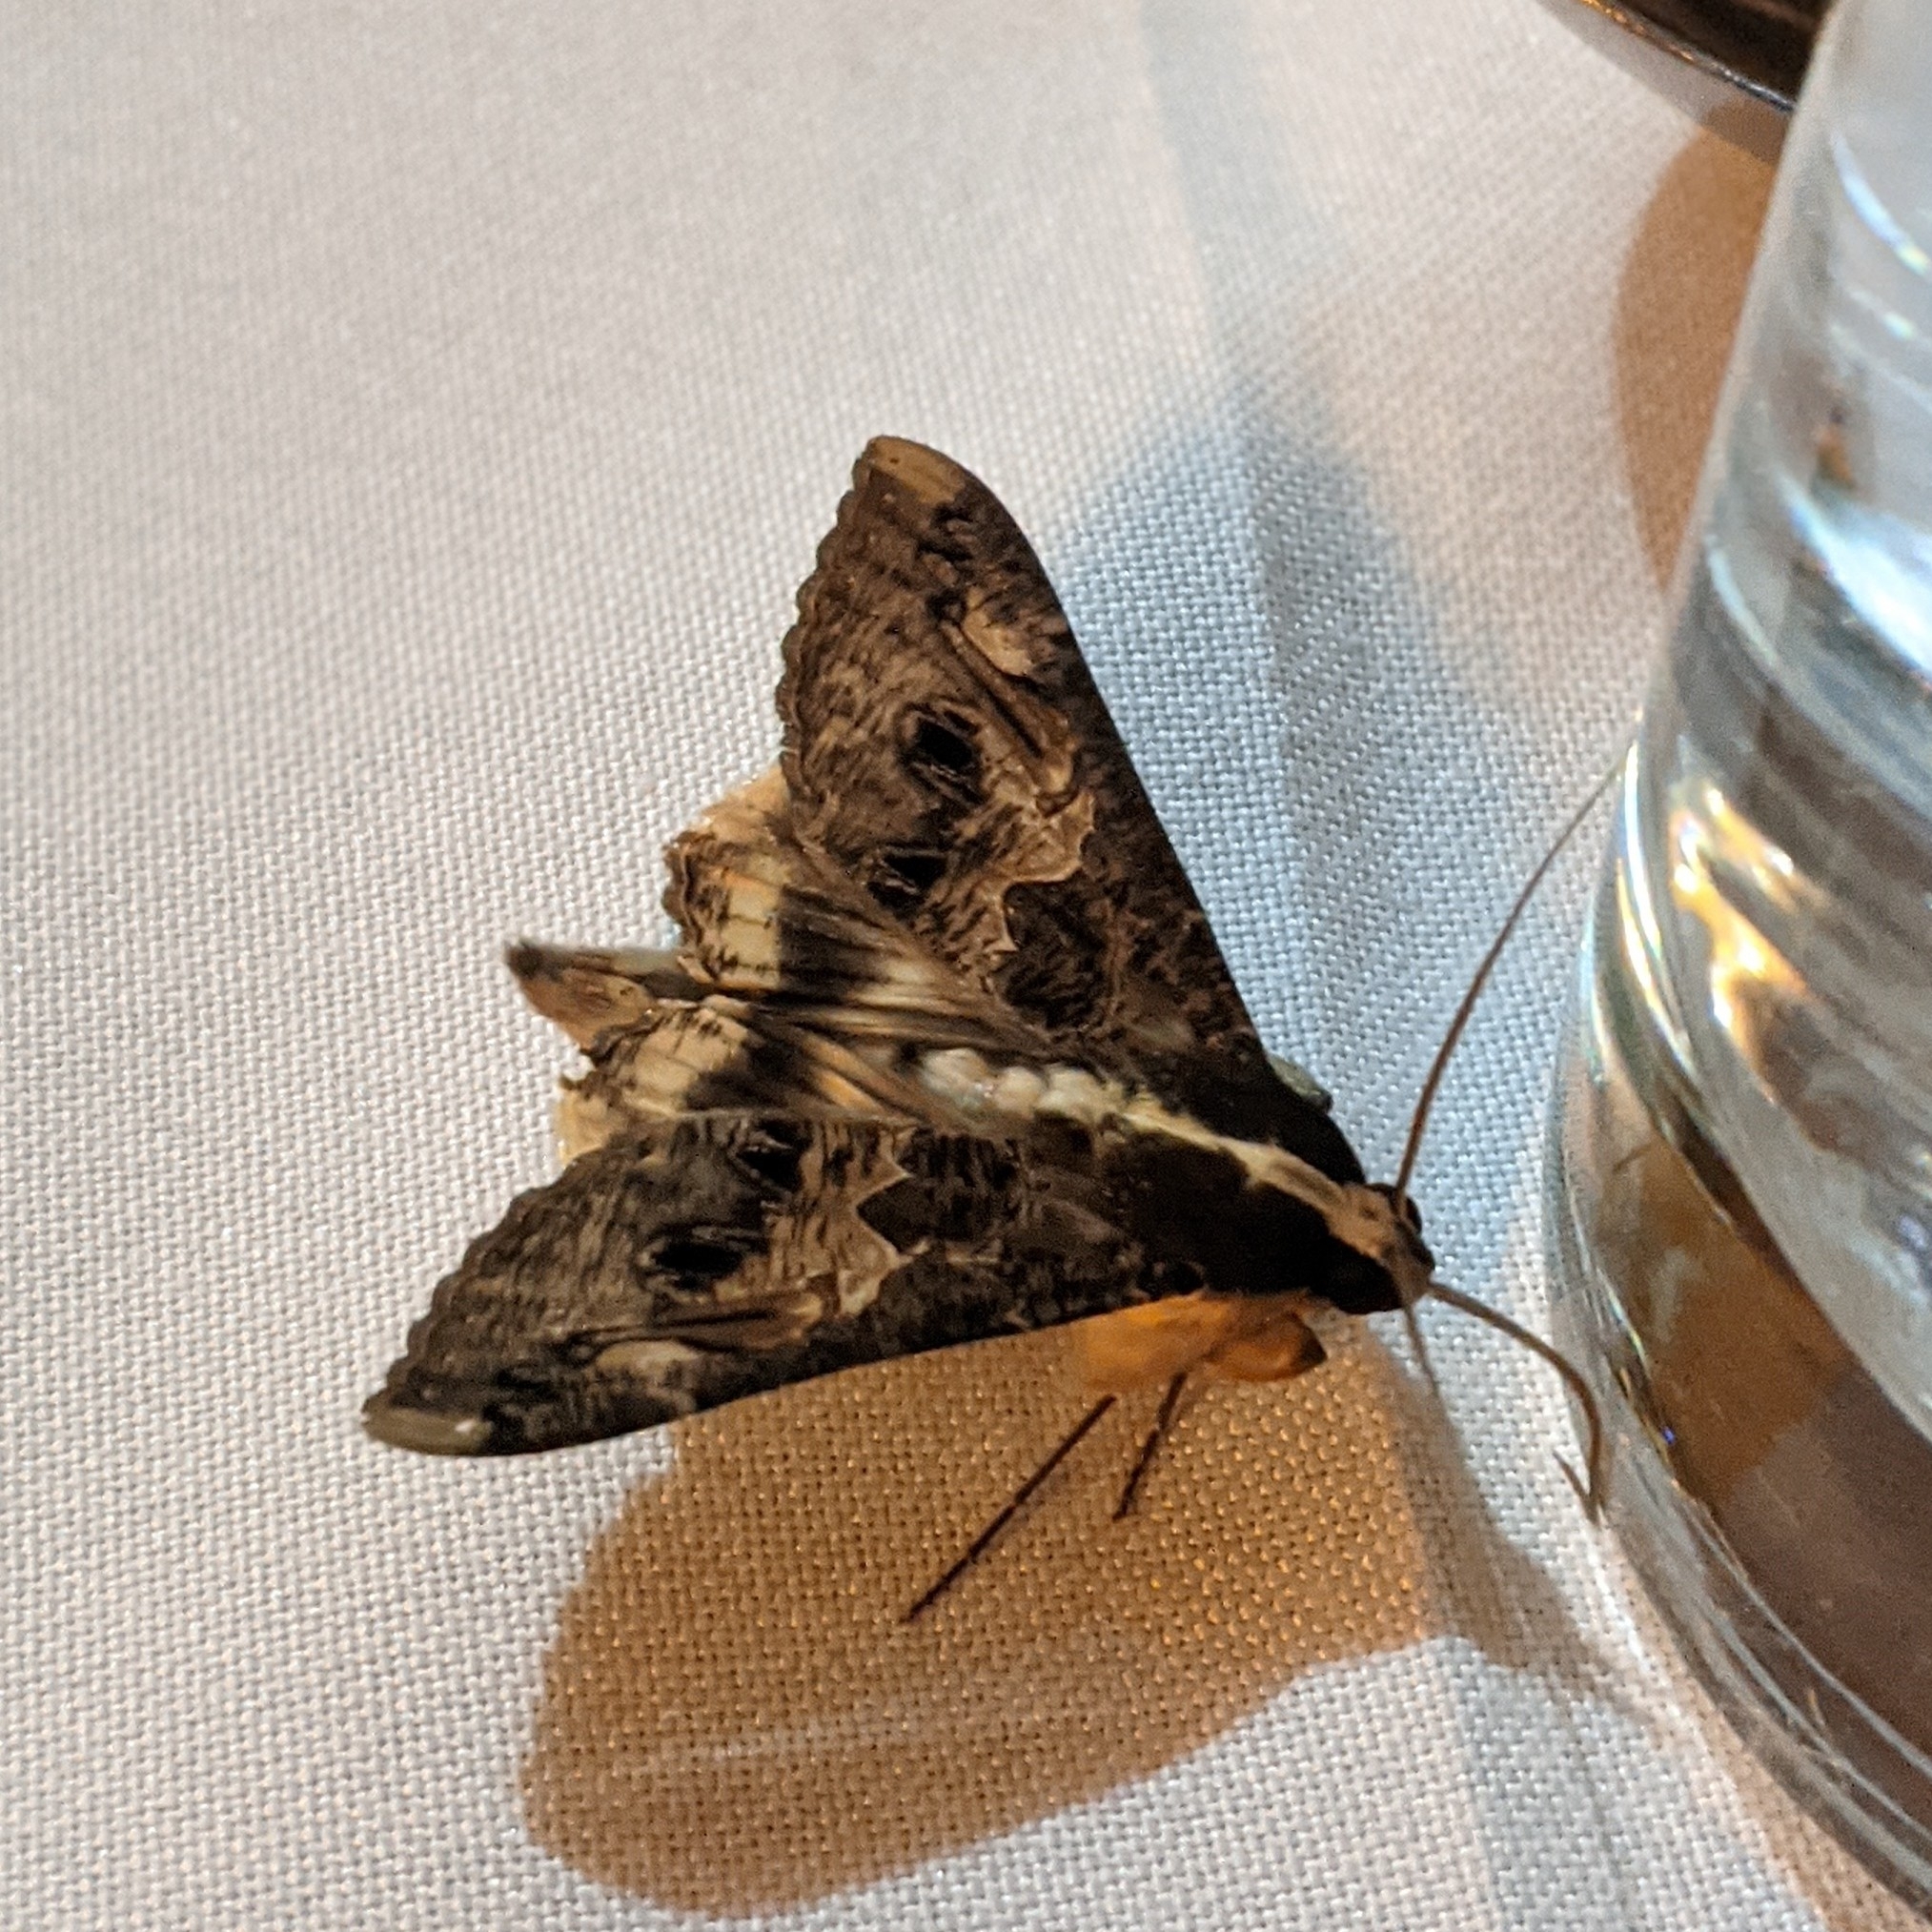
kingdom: Animalia
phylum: Arthropoda
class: Insecta
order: Lepidoptera
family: Erebidae
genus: Sphingomorpha
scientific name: Sphingomorpha chlorea
